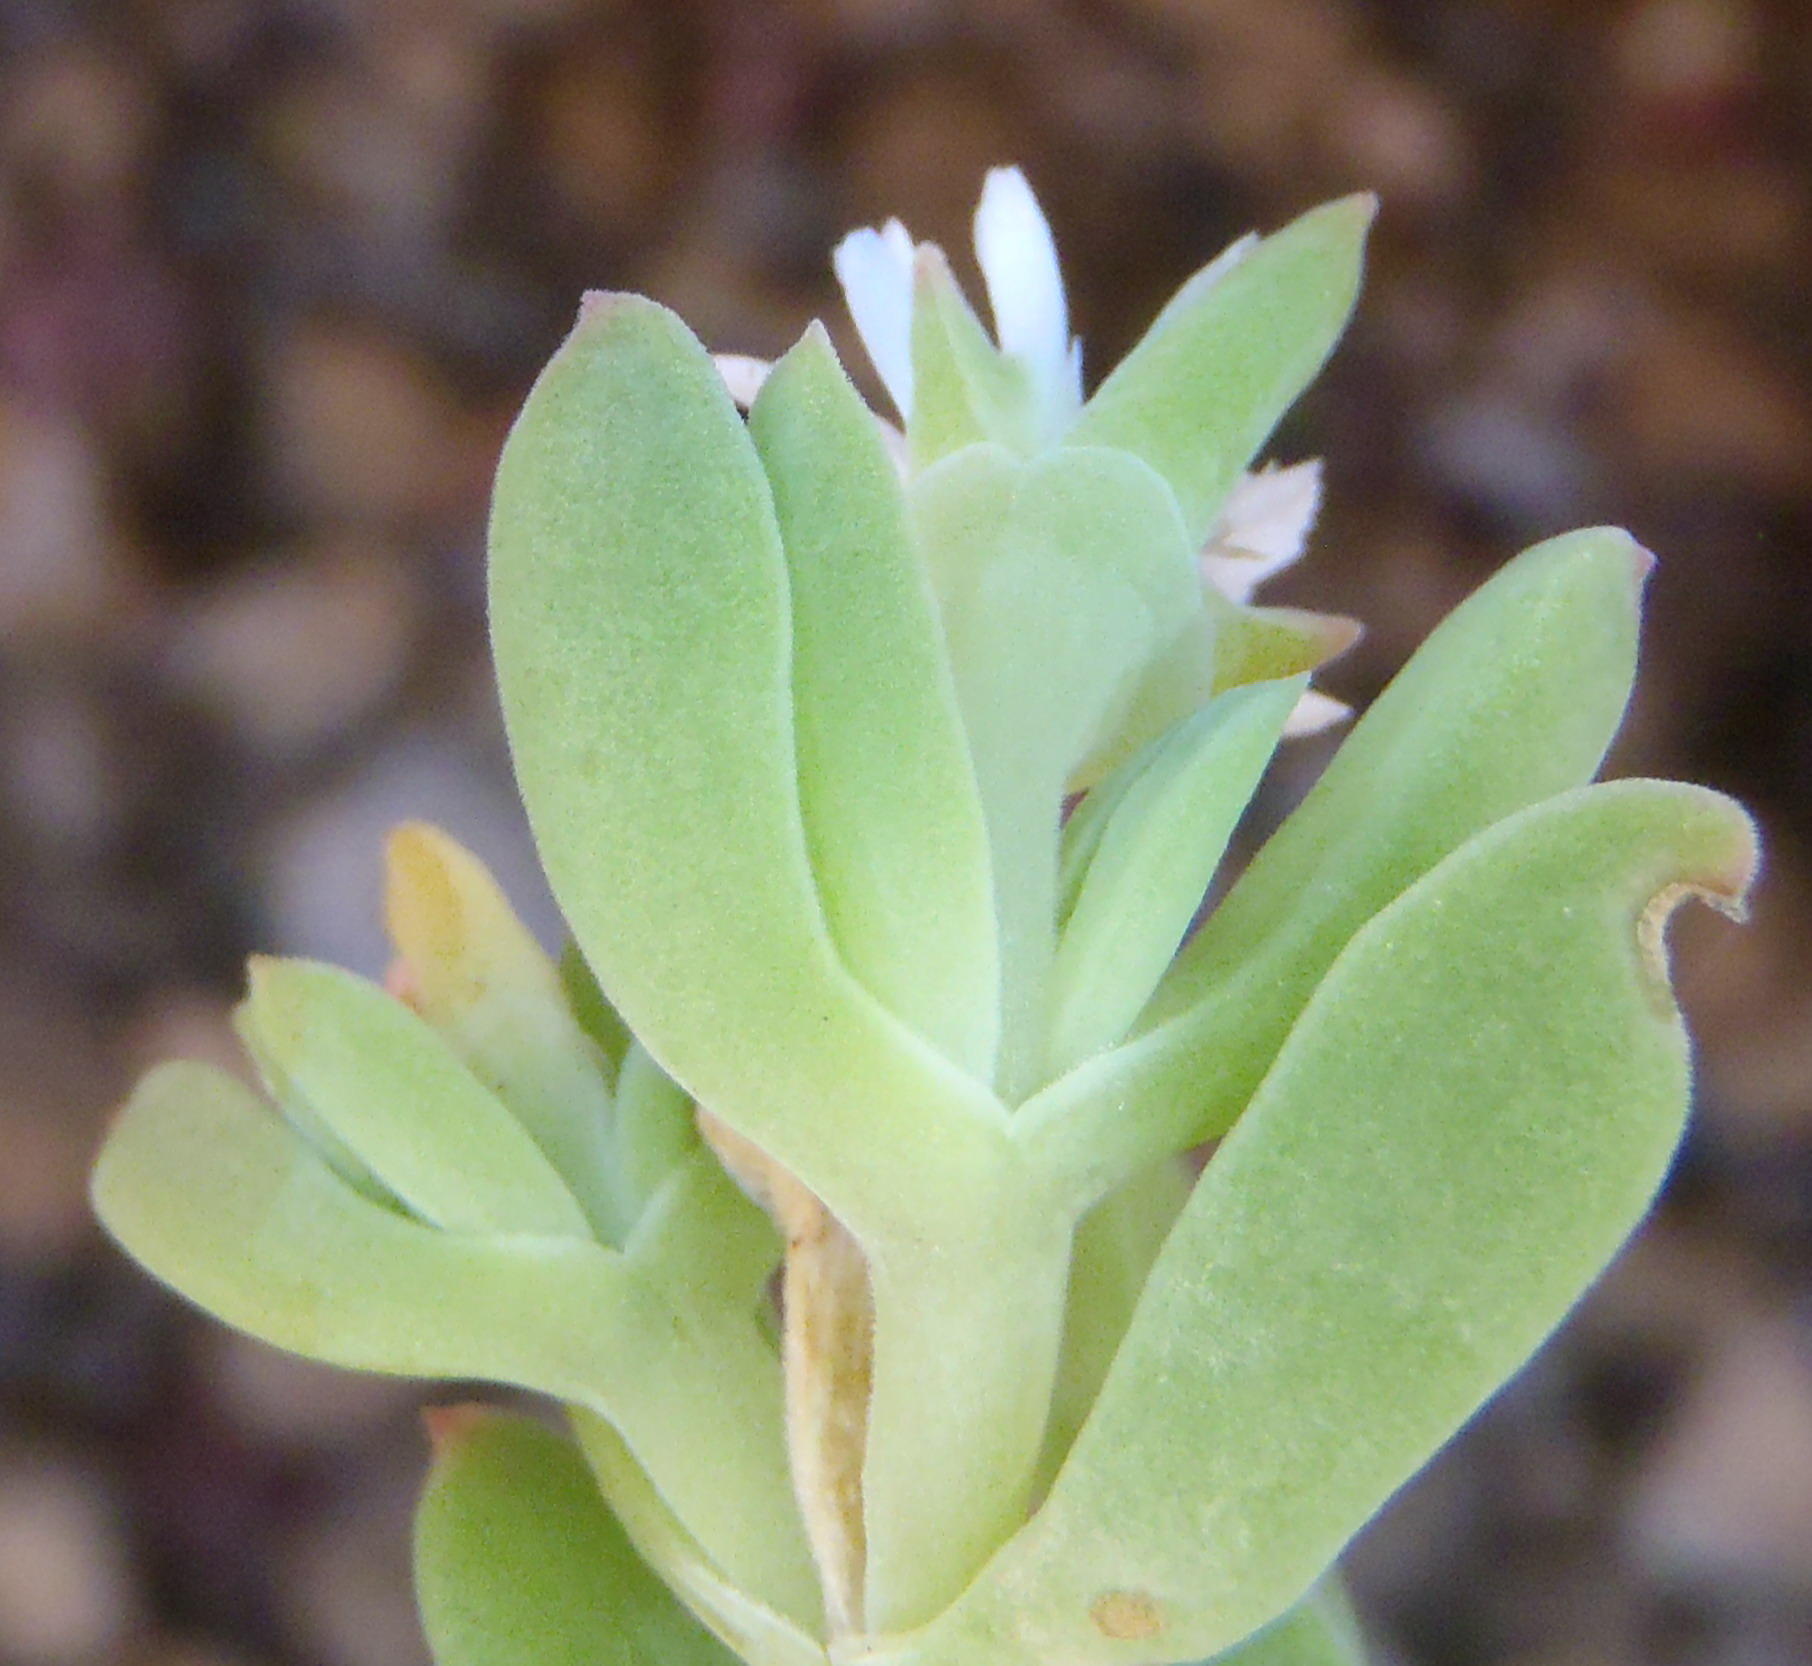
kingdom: Plantae
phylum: Tracheophyta
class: Magnoliopsida
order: Caryophyllales
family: Aizoaceae
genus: Delosperma
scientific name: Delosperma patersoniae
